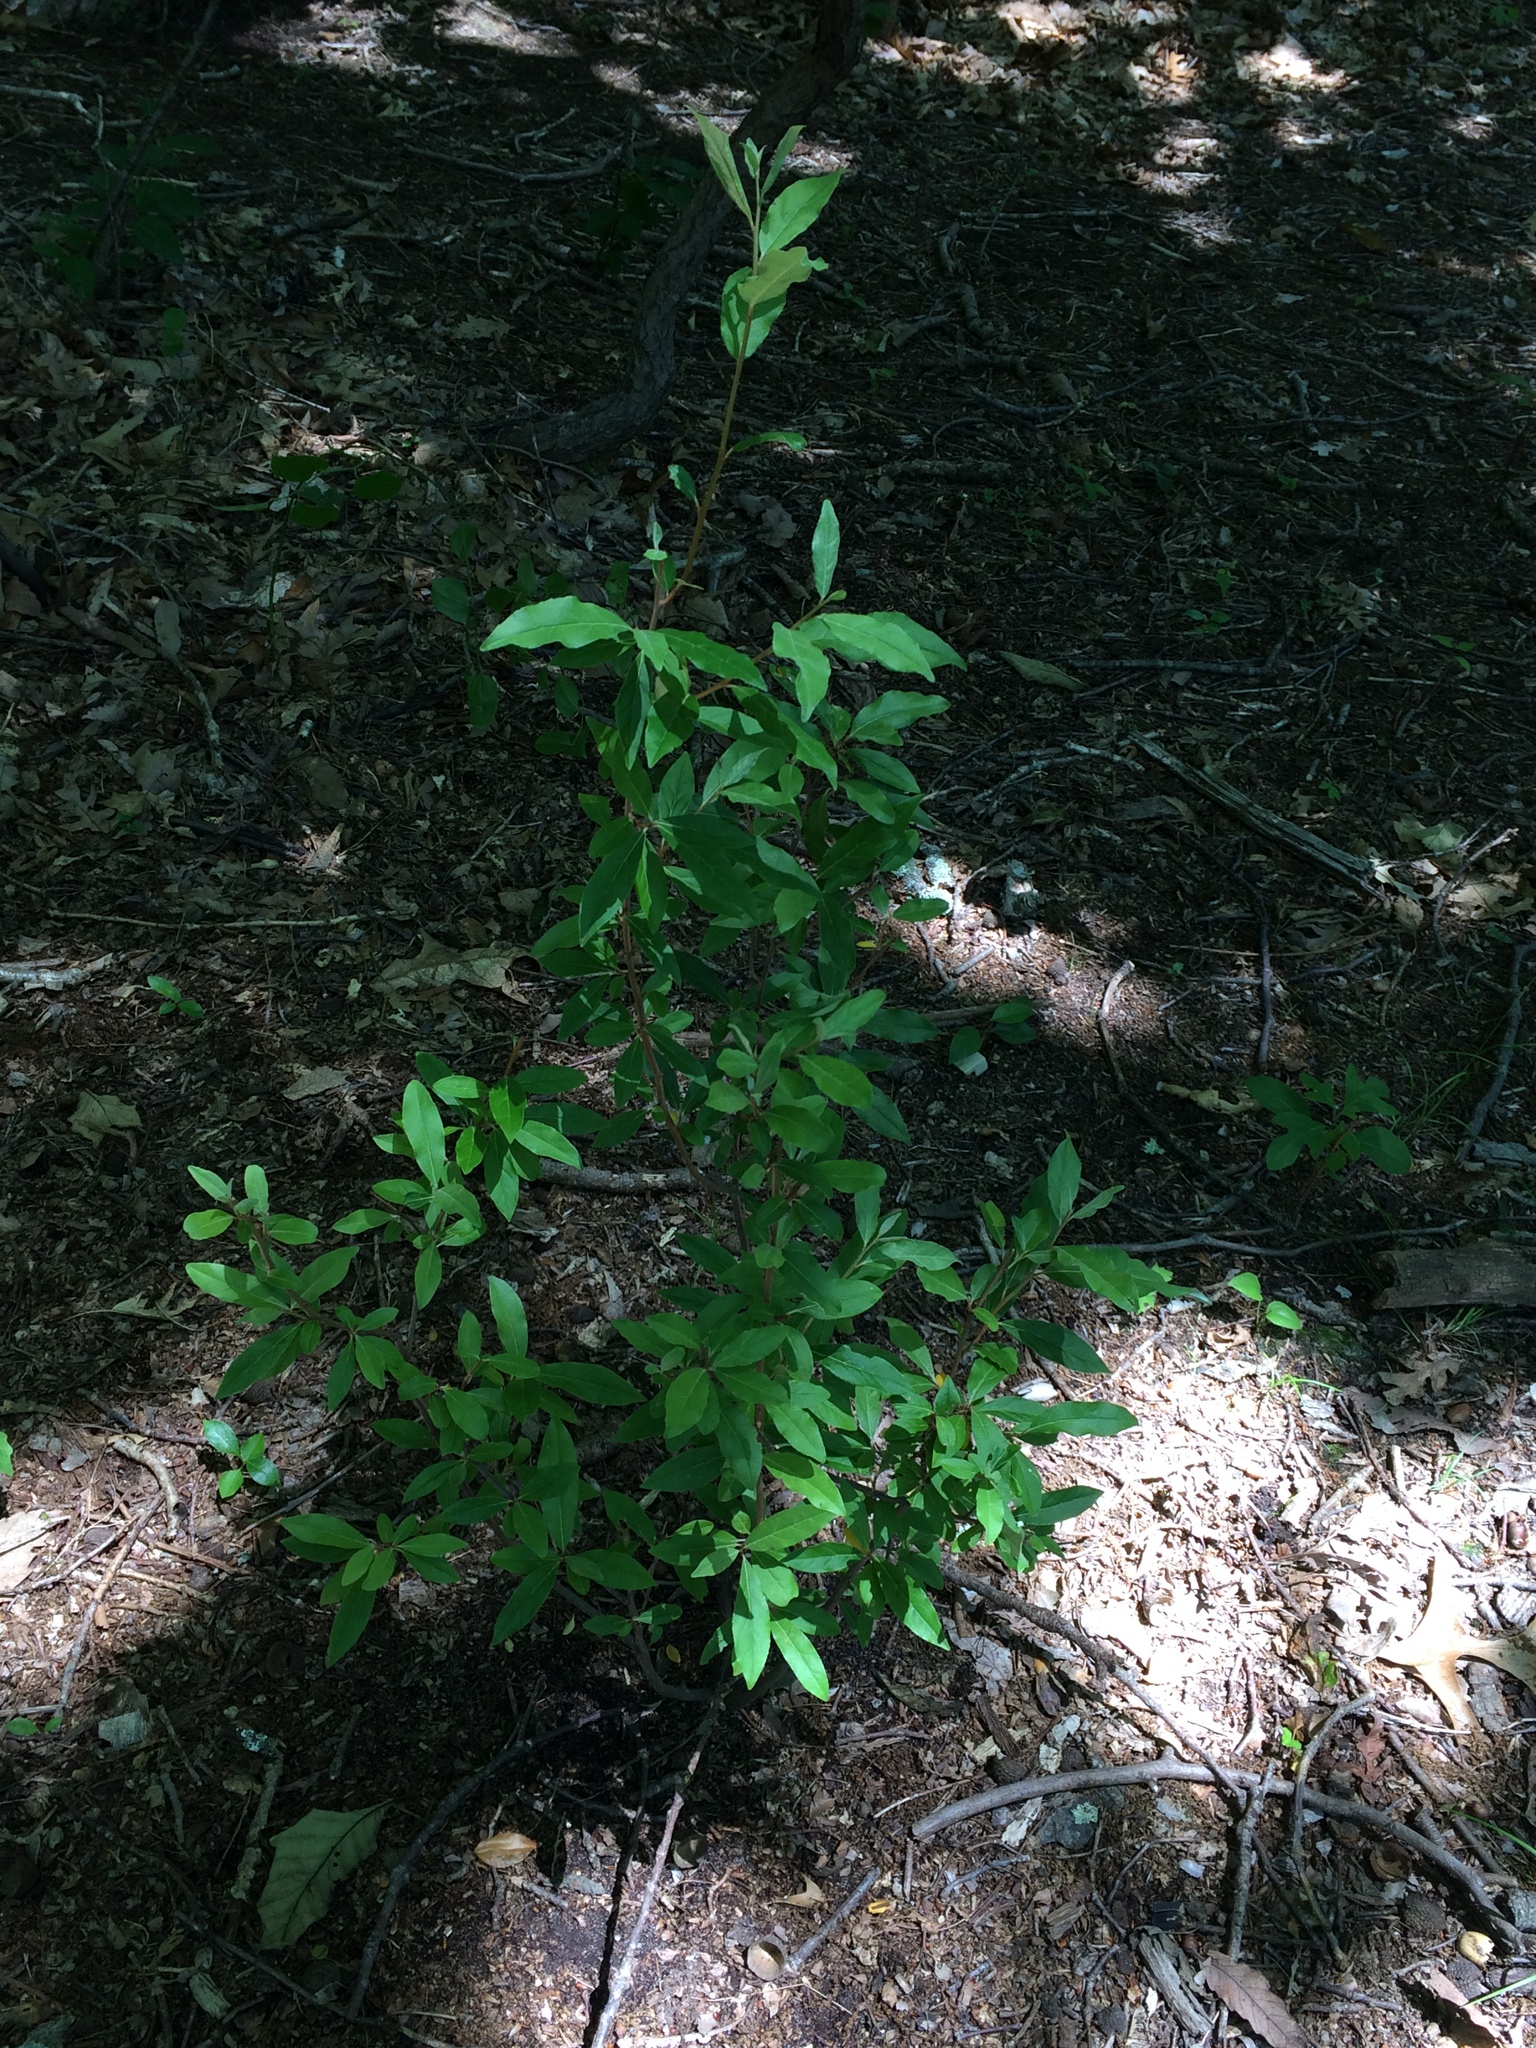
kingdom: Plantae
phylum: Tracheophyta
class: Magnoliopsida
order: Rosales
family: Elaeagnaceae
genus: Elaeagnus
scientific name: Elaeagnus umbellata
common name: Autumn olive
